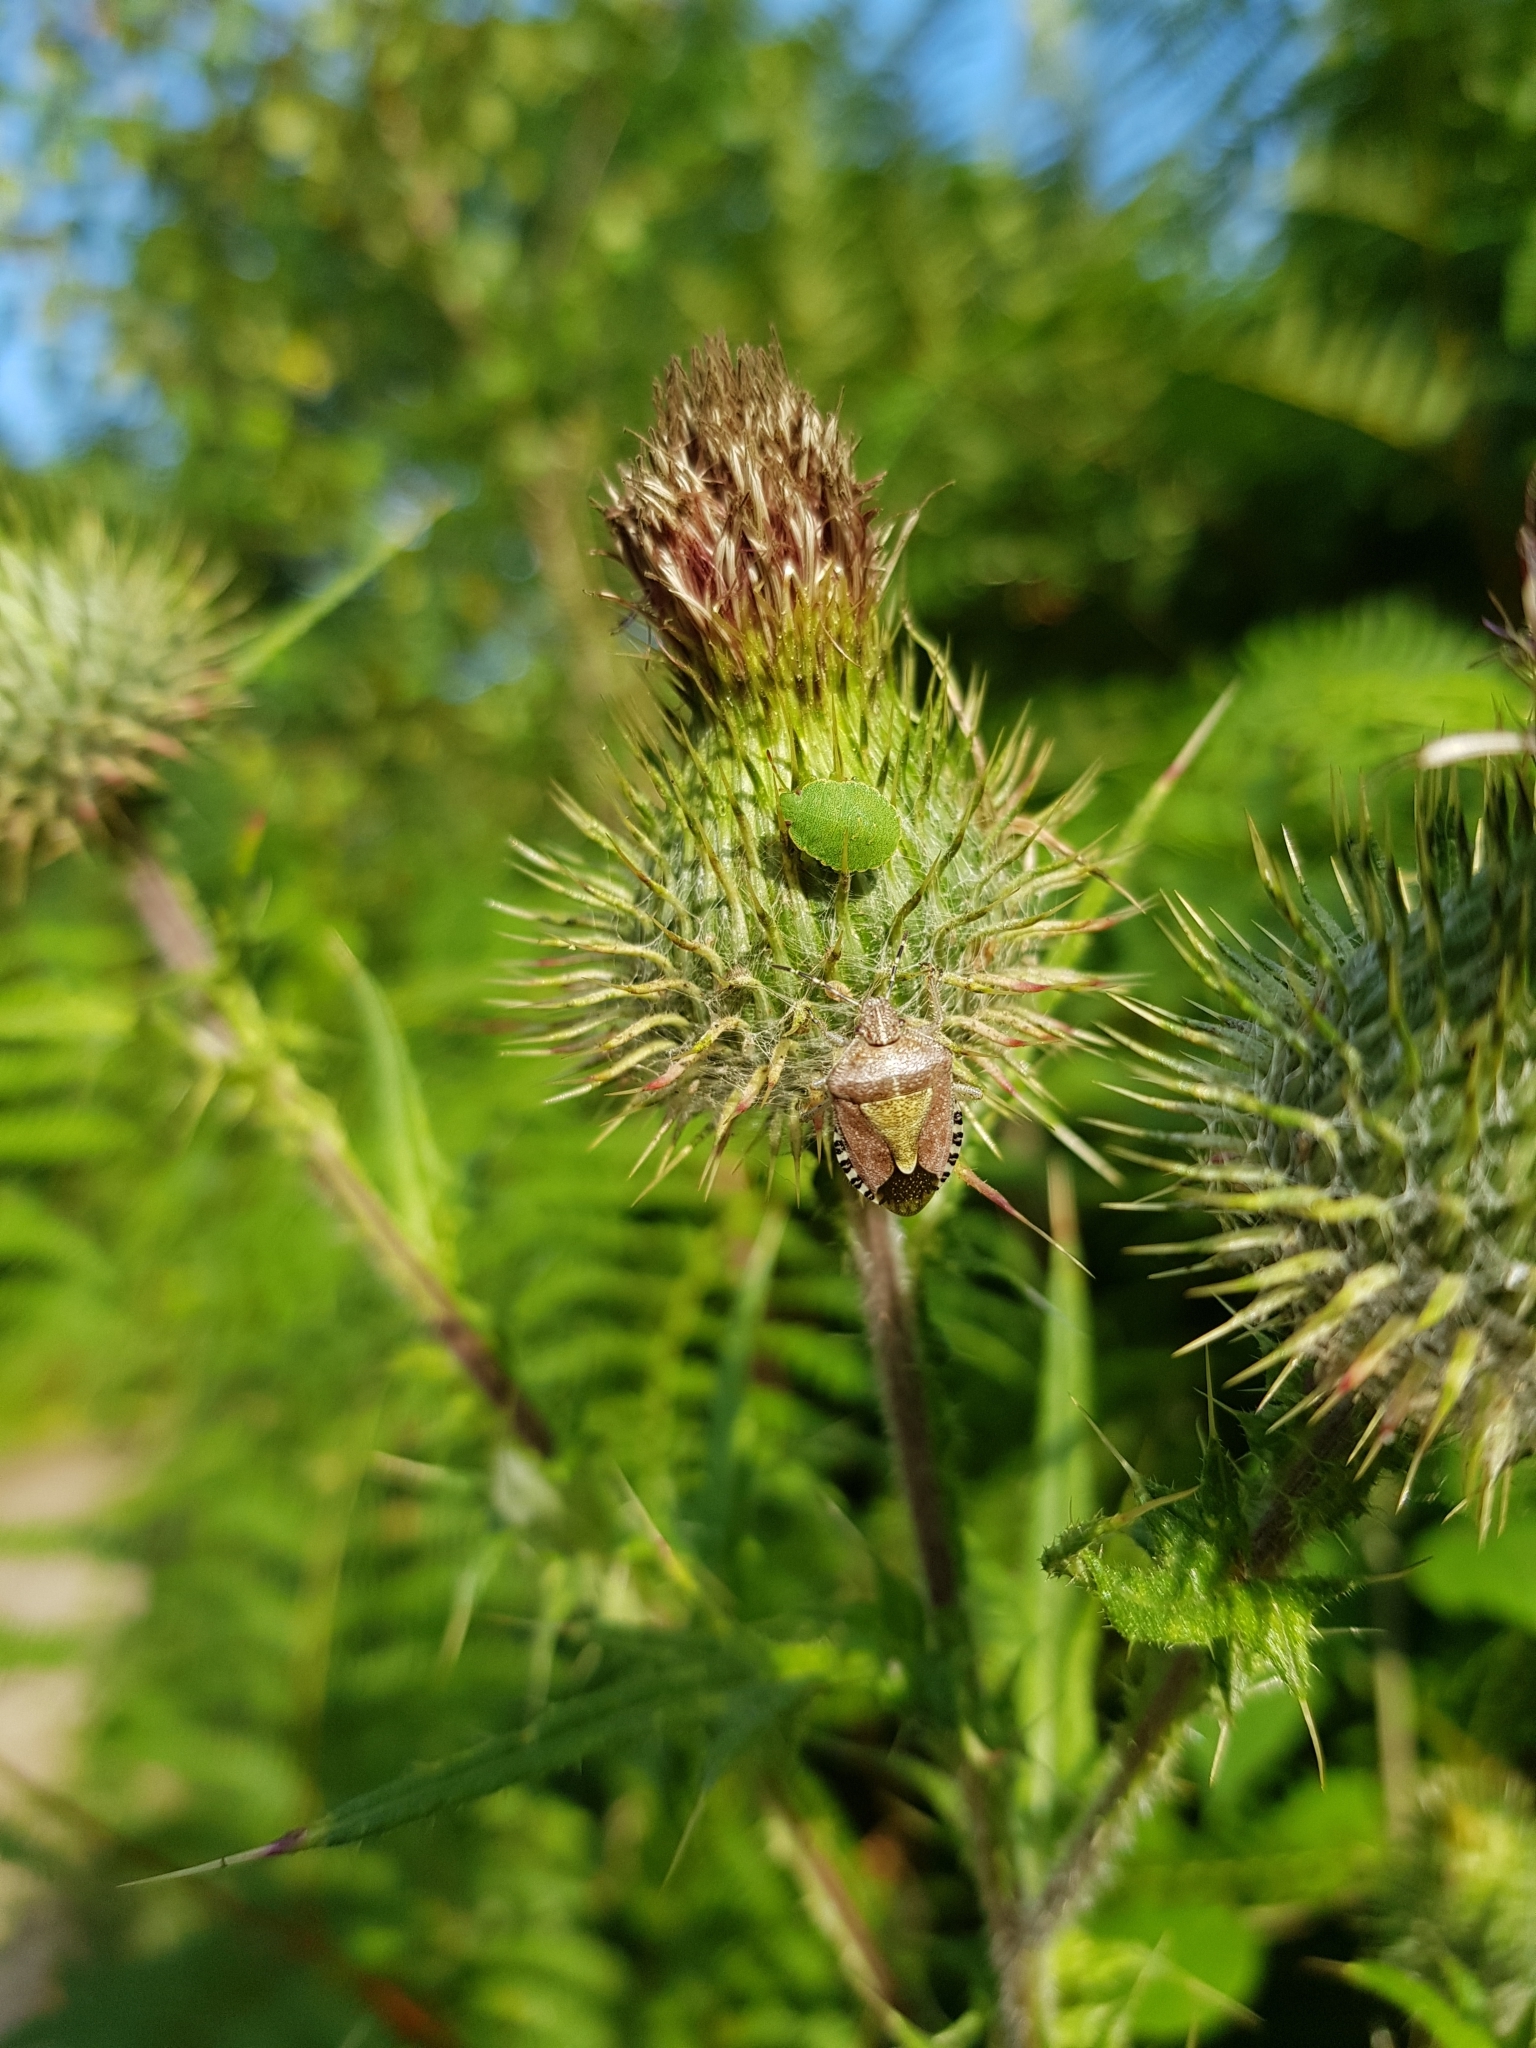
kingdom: Animalia
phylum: Arthropoda
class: Insecta
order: Hemiptera
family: Pentatomidae
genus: Dolycoris
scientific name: Dolycoris baccarum
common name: Sloe bug
